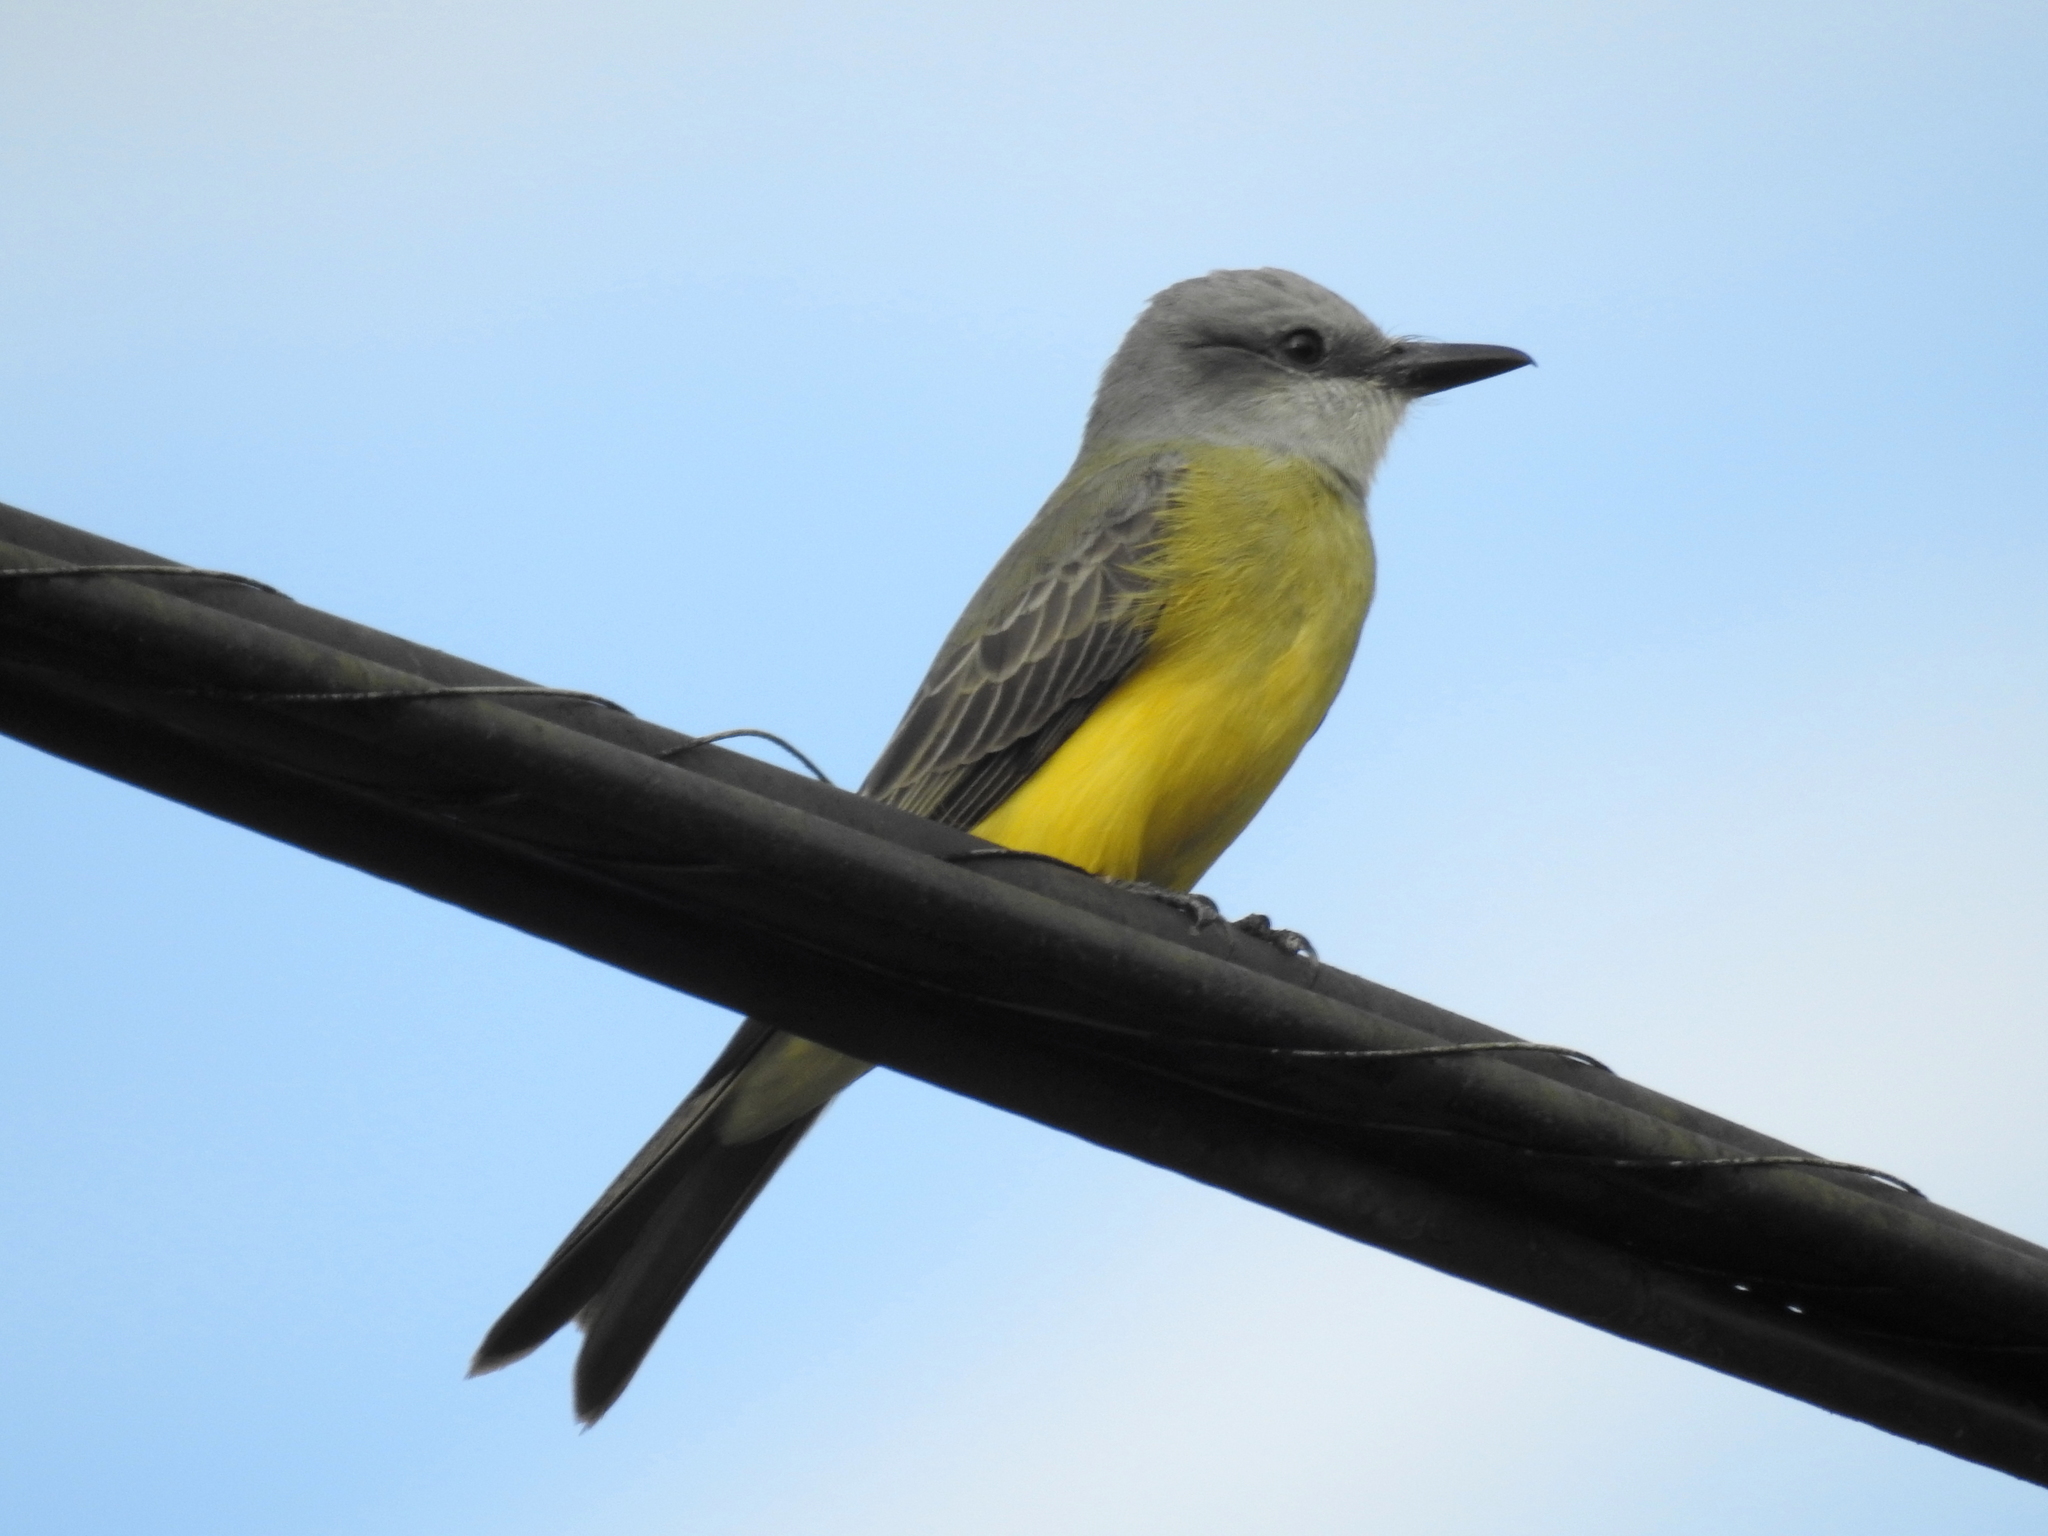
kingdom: Animalia
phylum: Chordata
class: Aves
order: Passeriformes
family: Tyrannidae
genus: Tyrannus
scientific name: Tyrannus melancholicus
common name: Tropical kingbird
